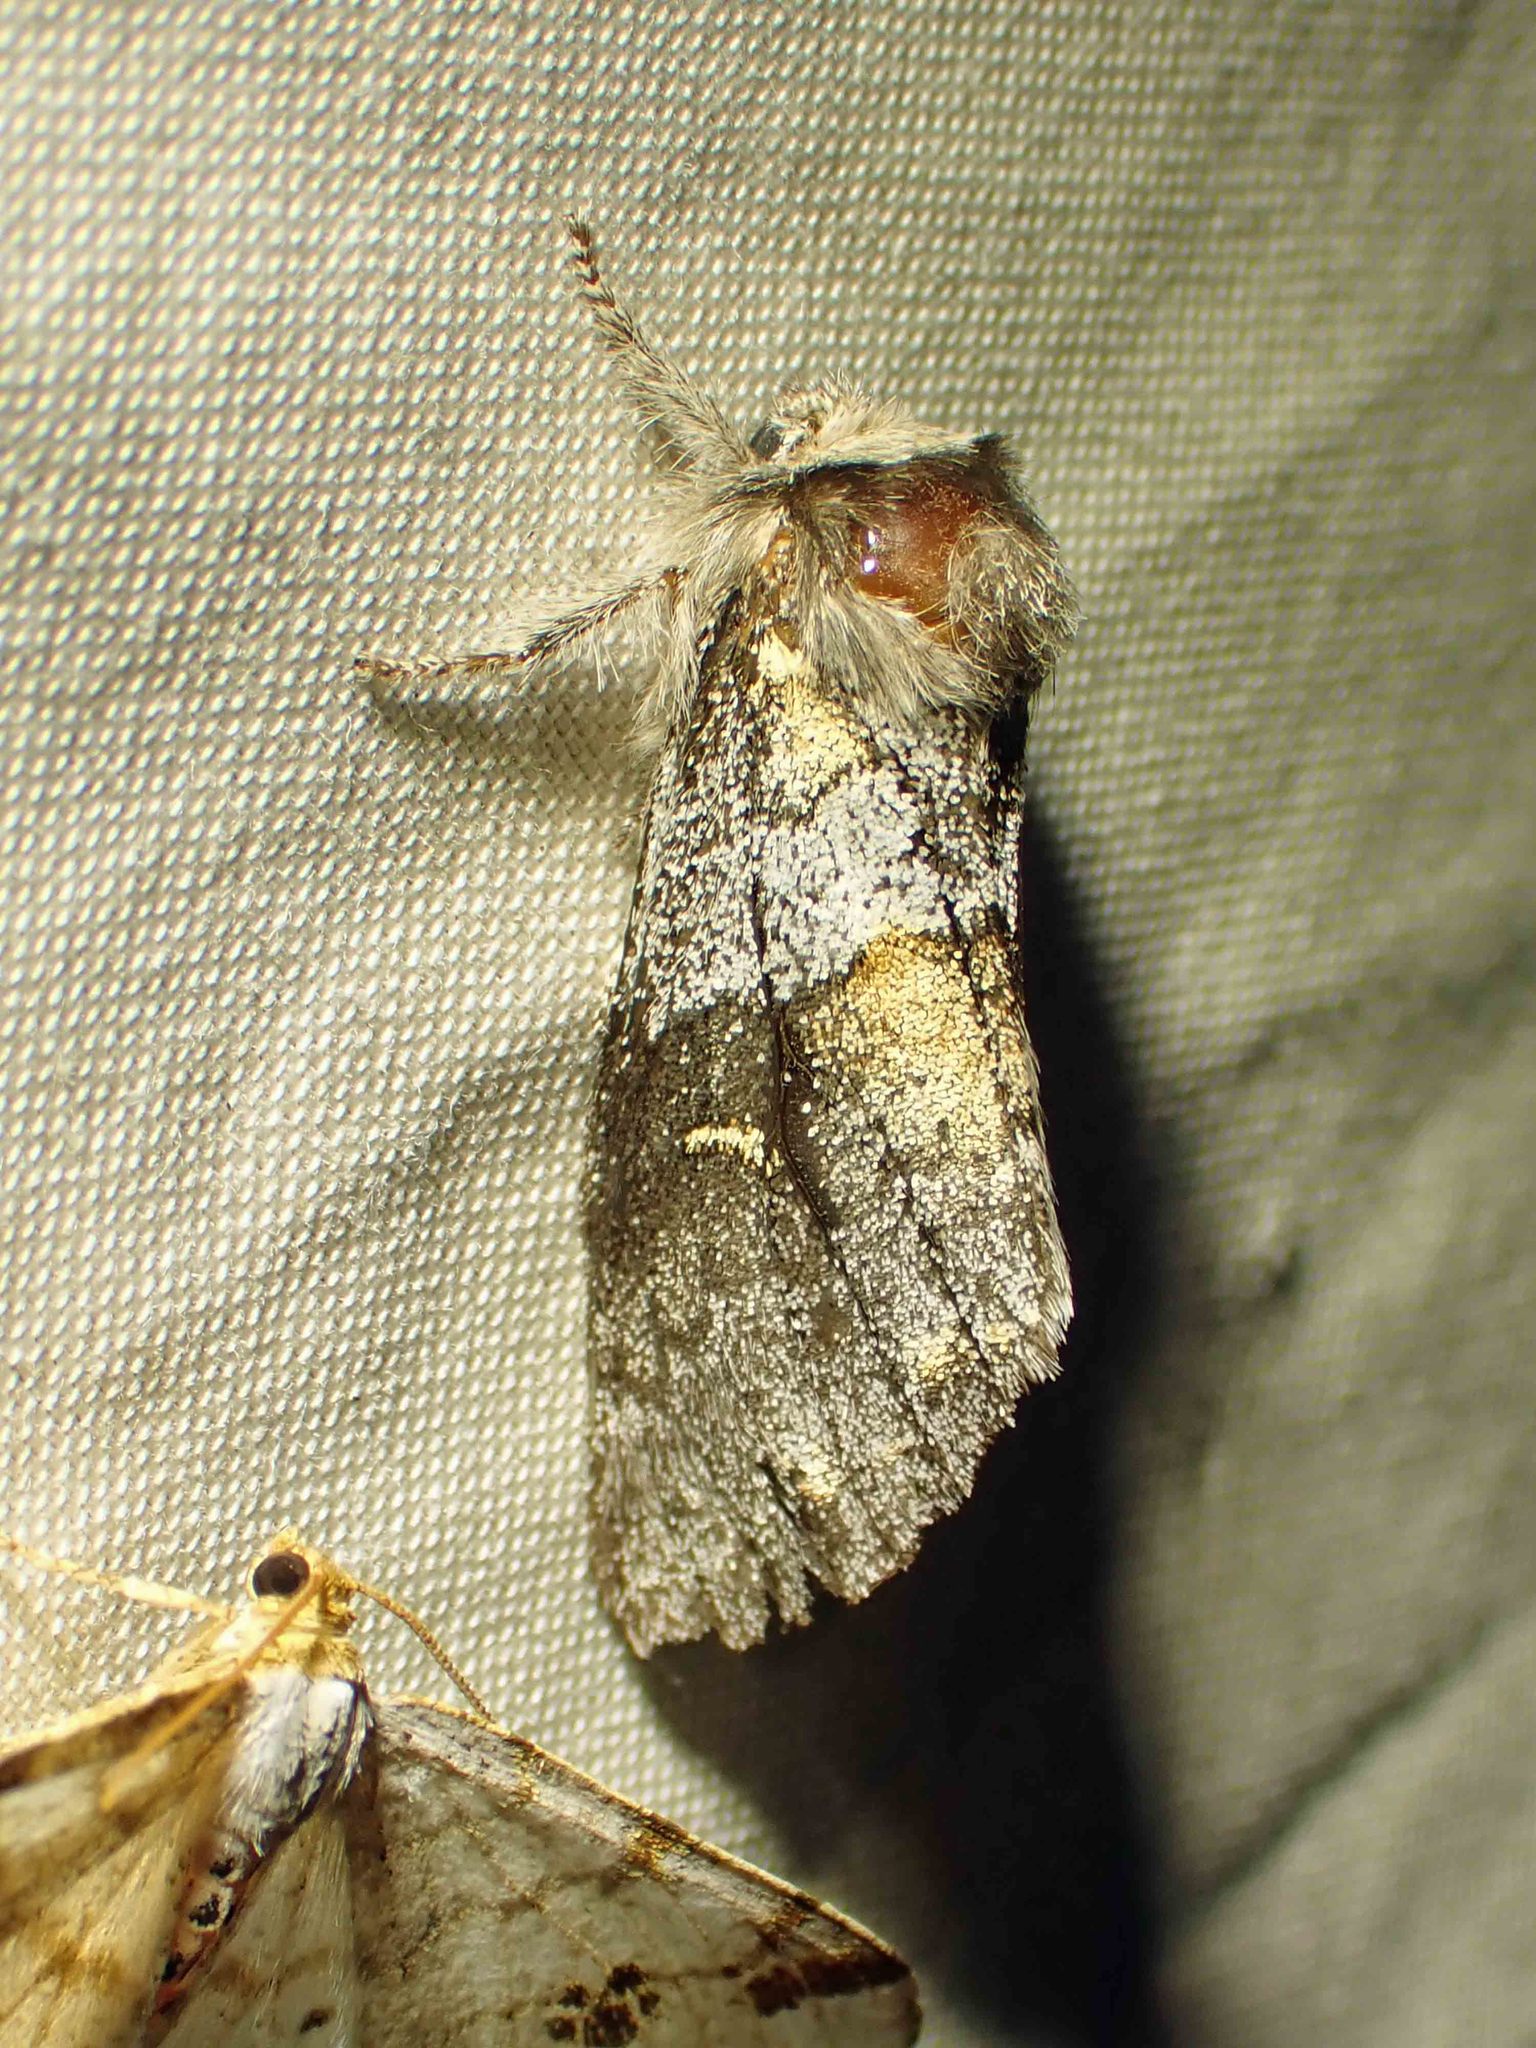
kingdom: Animalia
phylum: Arthropoda
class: Insecta
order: Lepidoptera
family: Notodontidae
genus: Gluphisia
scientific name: Gluphisia avimacula
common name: Four-spotted gluphisia moth
